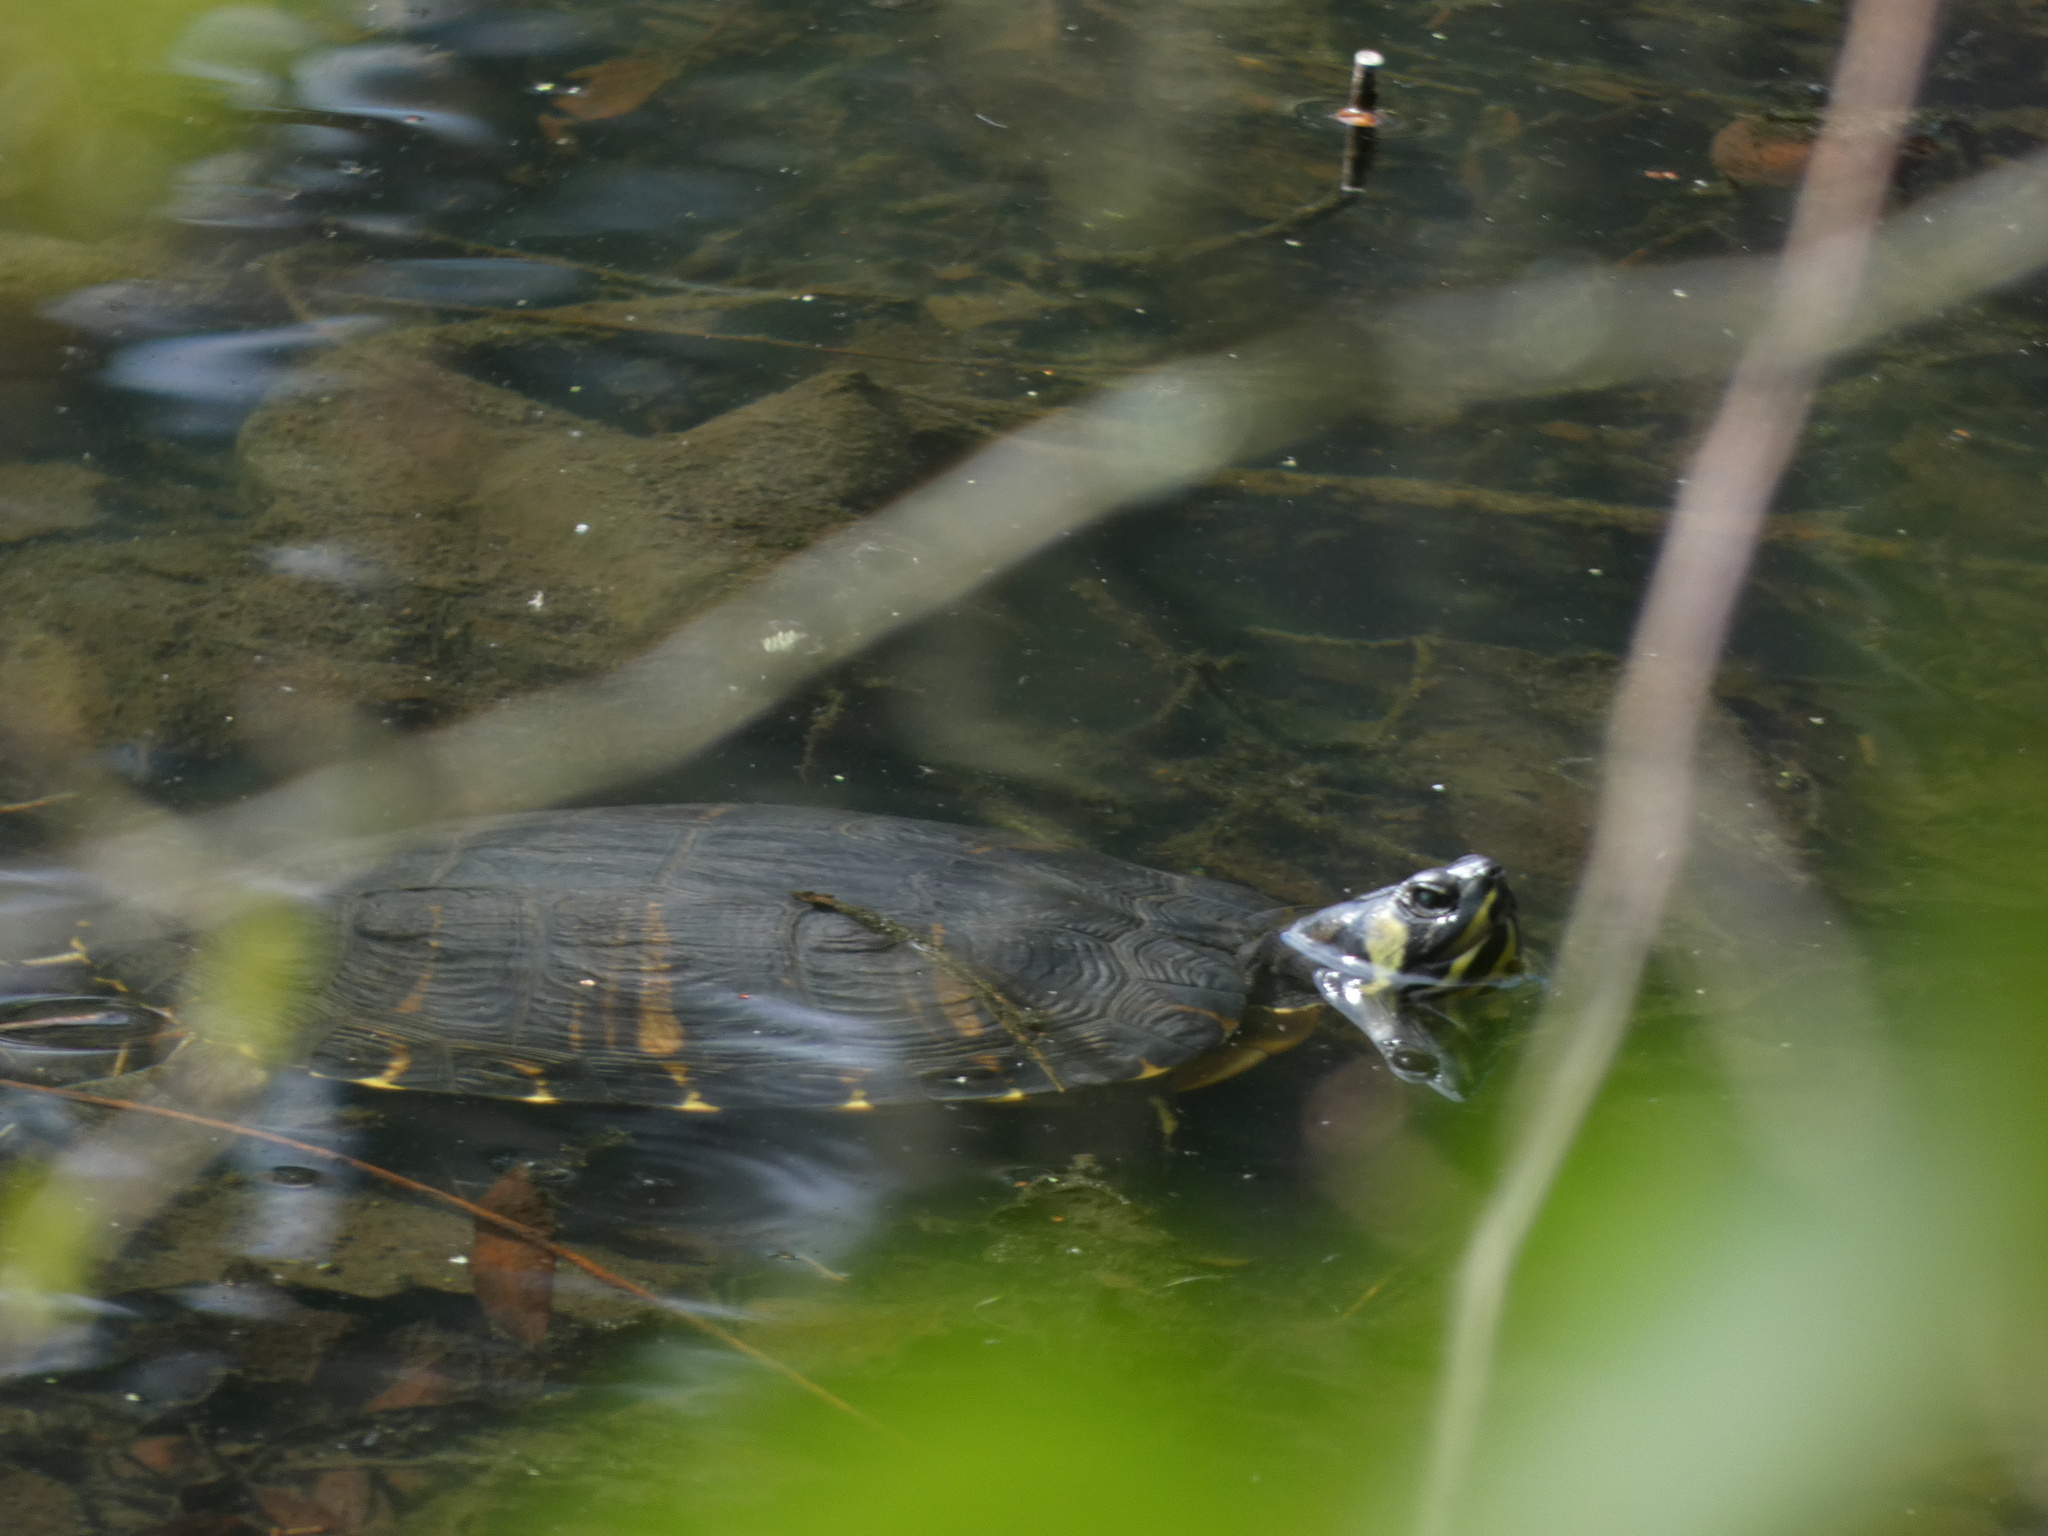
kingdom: Animalia
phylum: Chordata
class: Testudines
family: Emydidae
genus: Trachemys
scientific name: Trachemys scripta
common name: Slider
